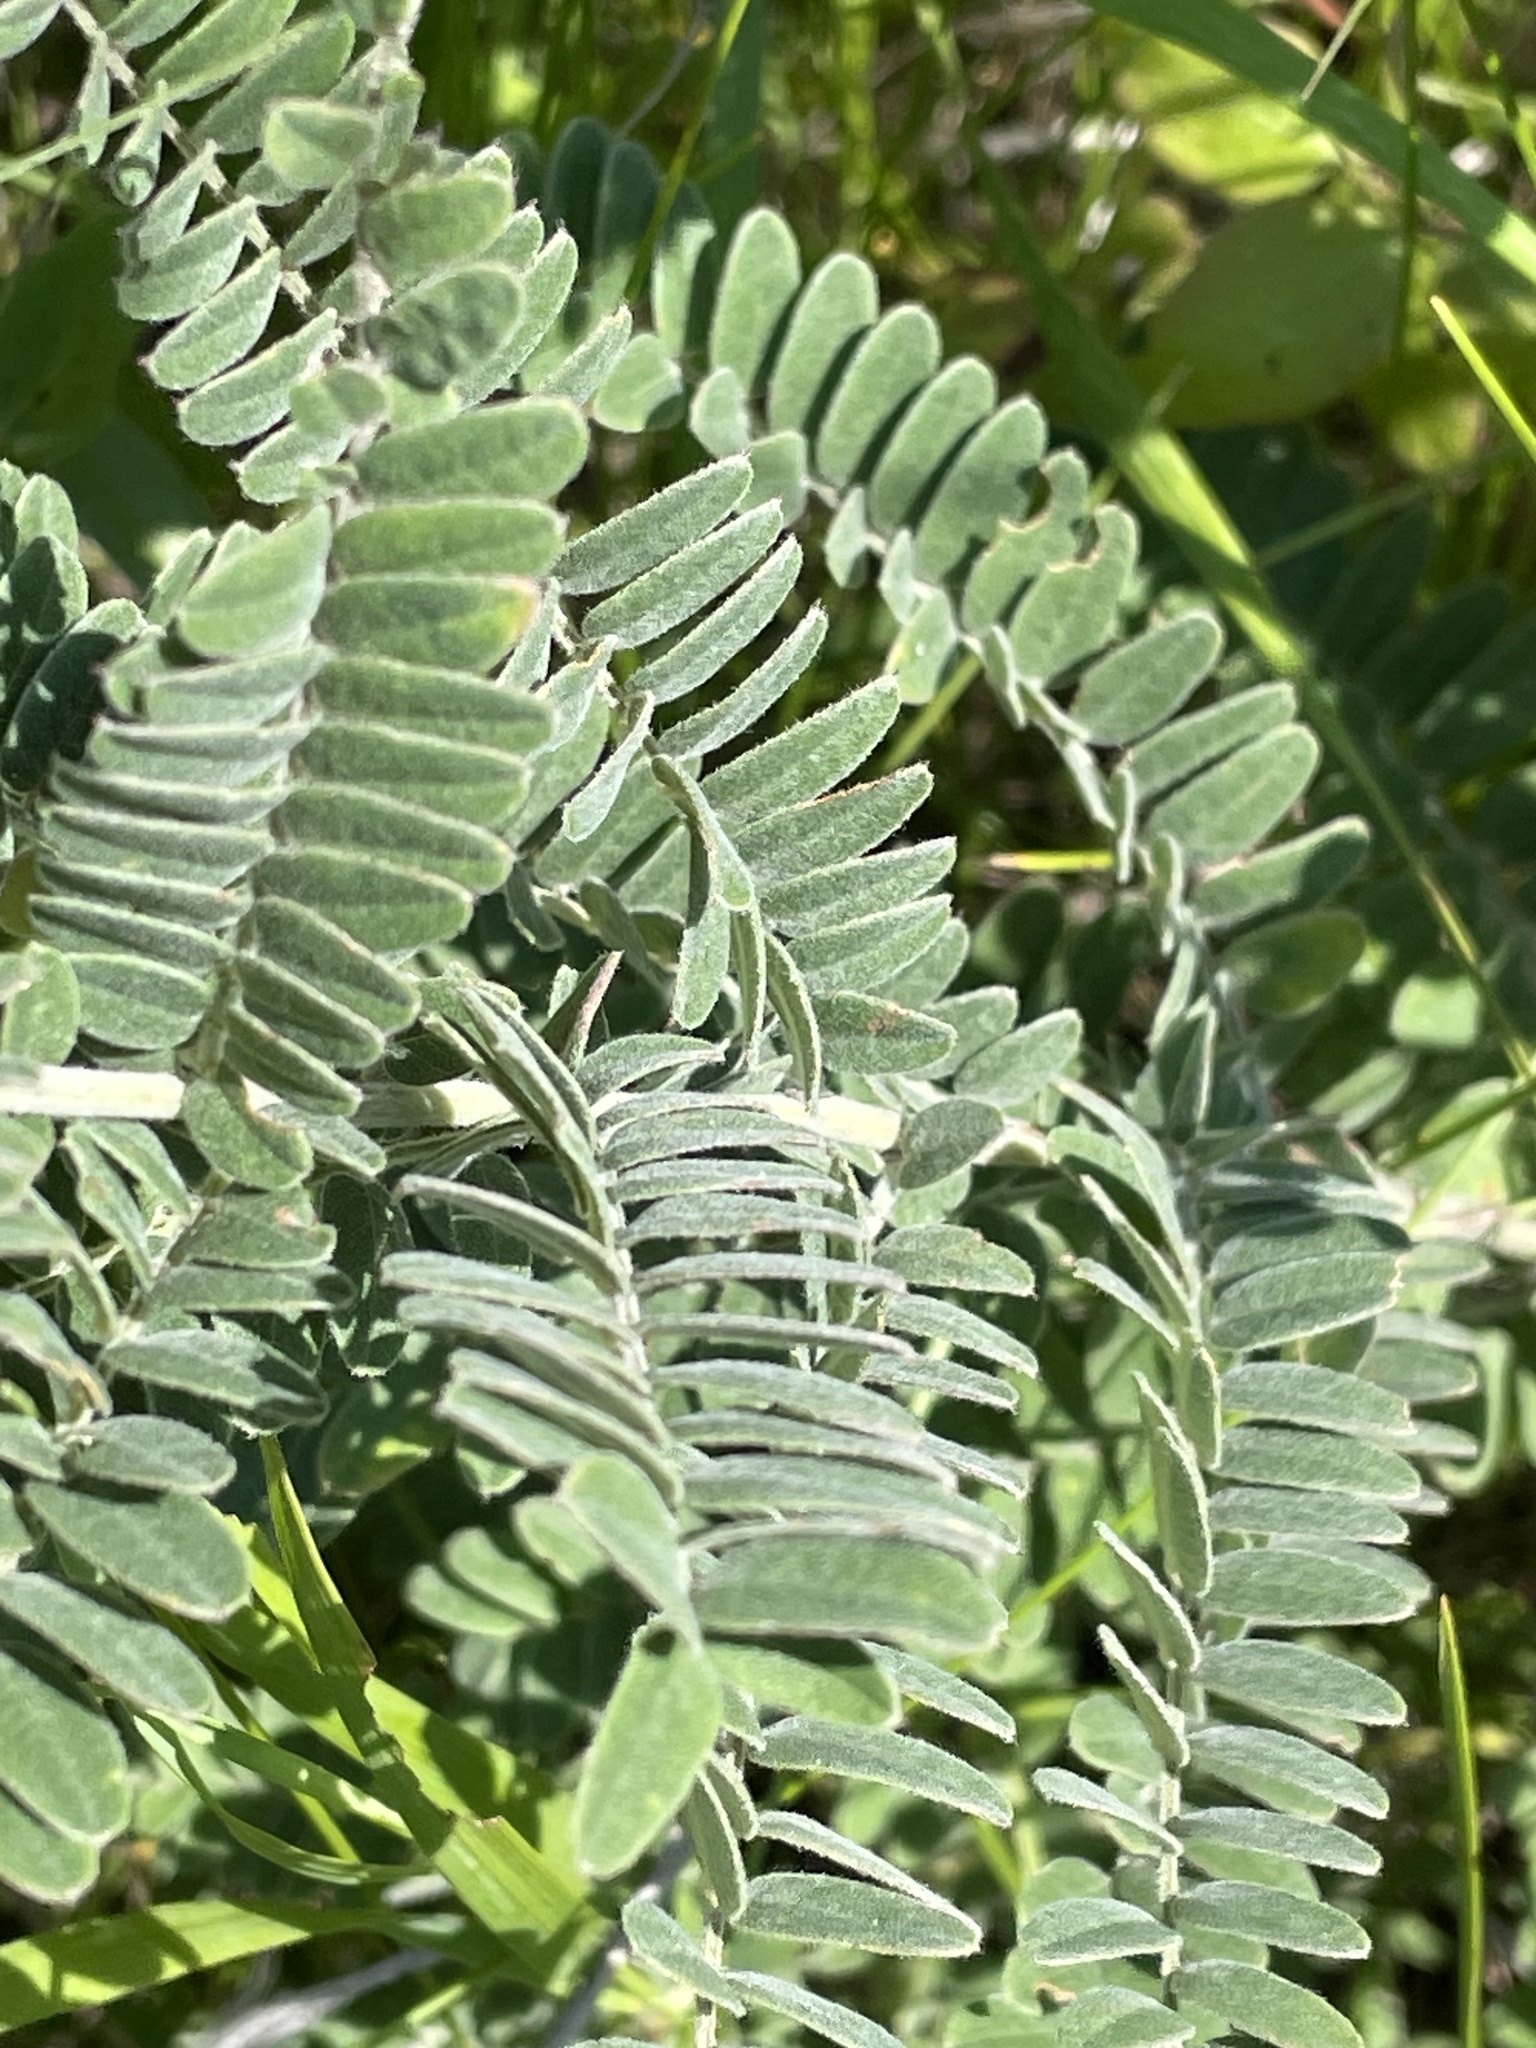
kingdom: Plantae
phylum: Tracheophyta
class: Magnoliopsida
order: Fabales
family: Fabaceae
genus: Amorpha
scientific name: Amorpha canescens
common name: Leadplant
